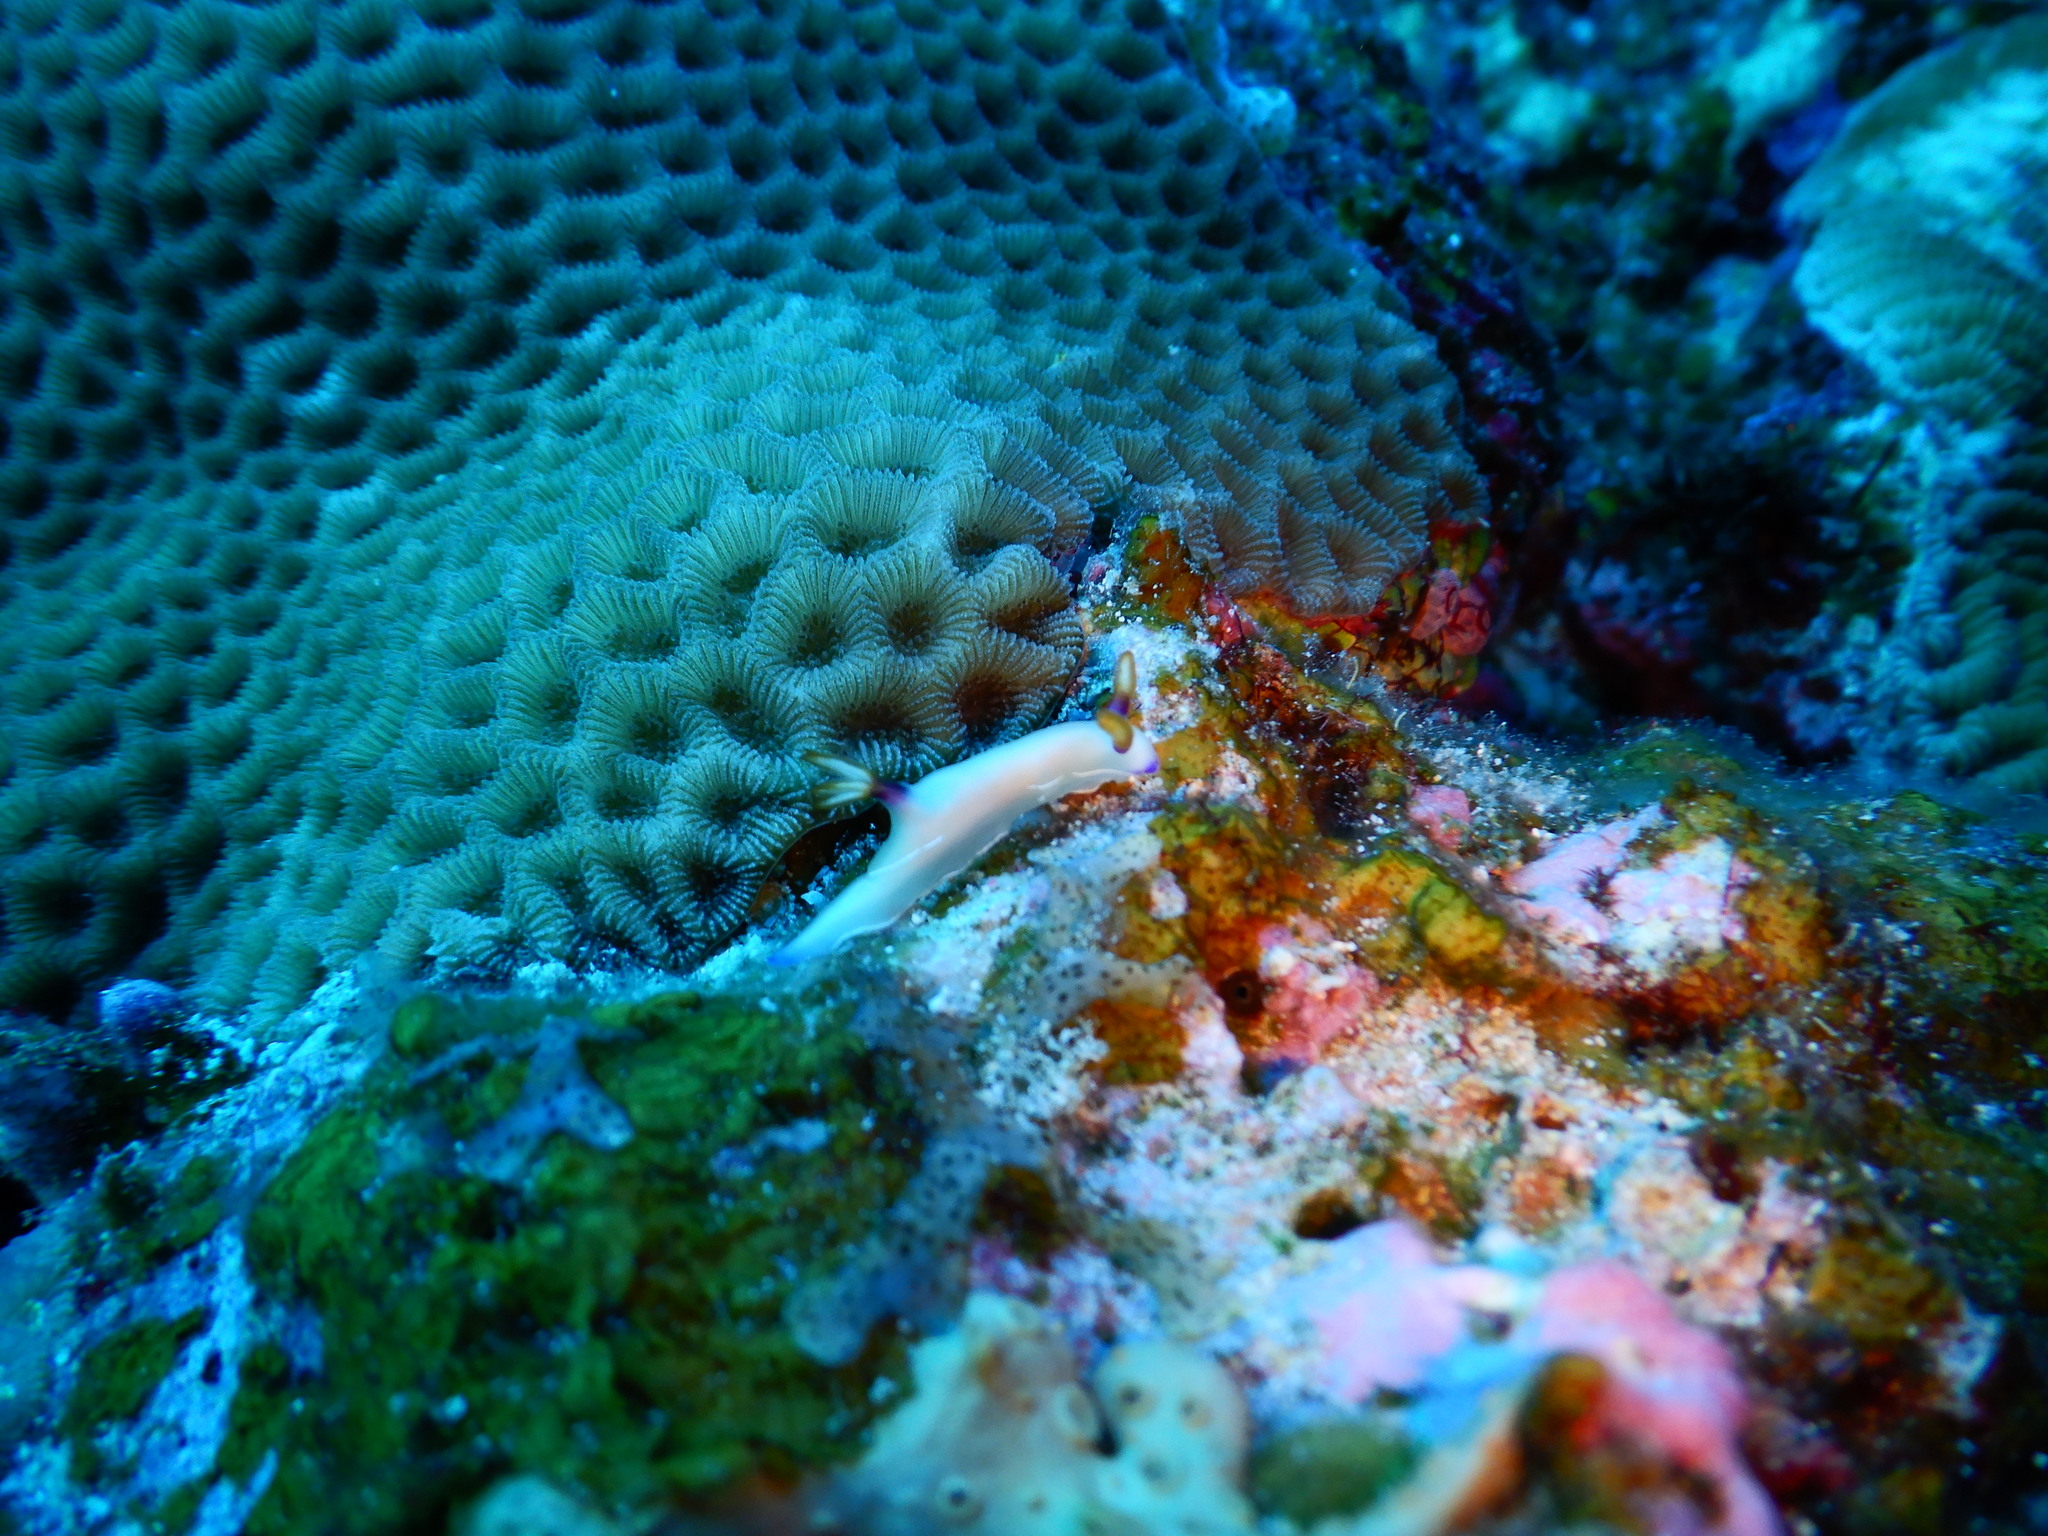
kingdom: Animalia
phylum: Mollusca
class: Gastropoda
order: Nudibranchia
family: Chromodorididae
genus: Hypselodoris
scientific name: Hypselodoris bullockii
